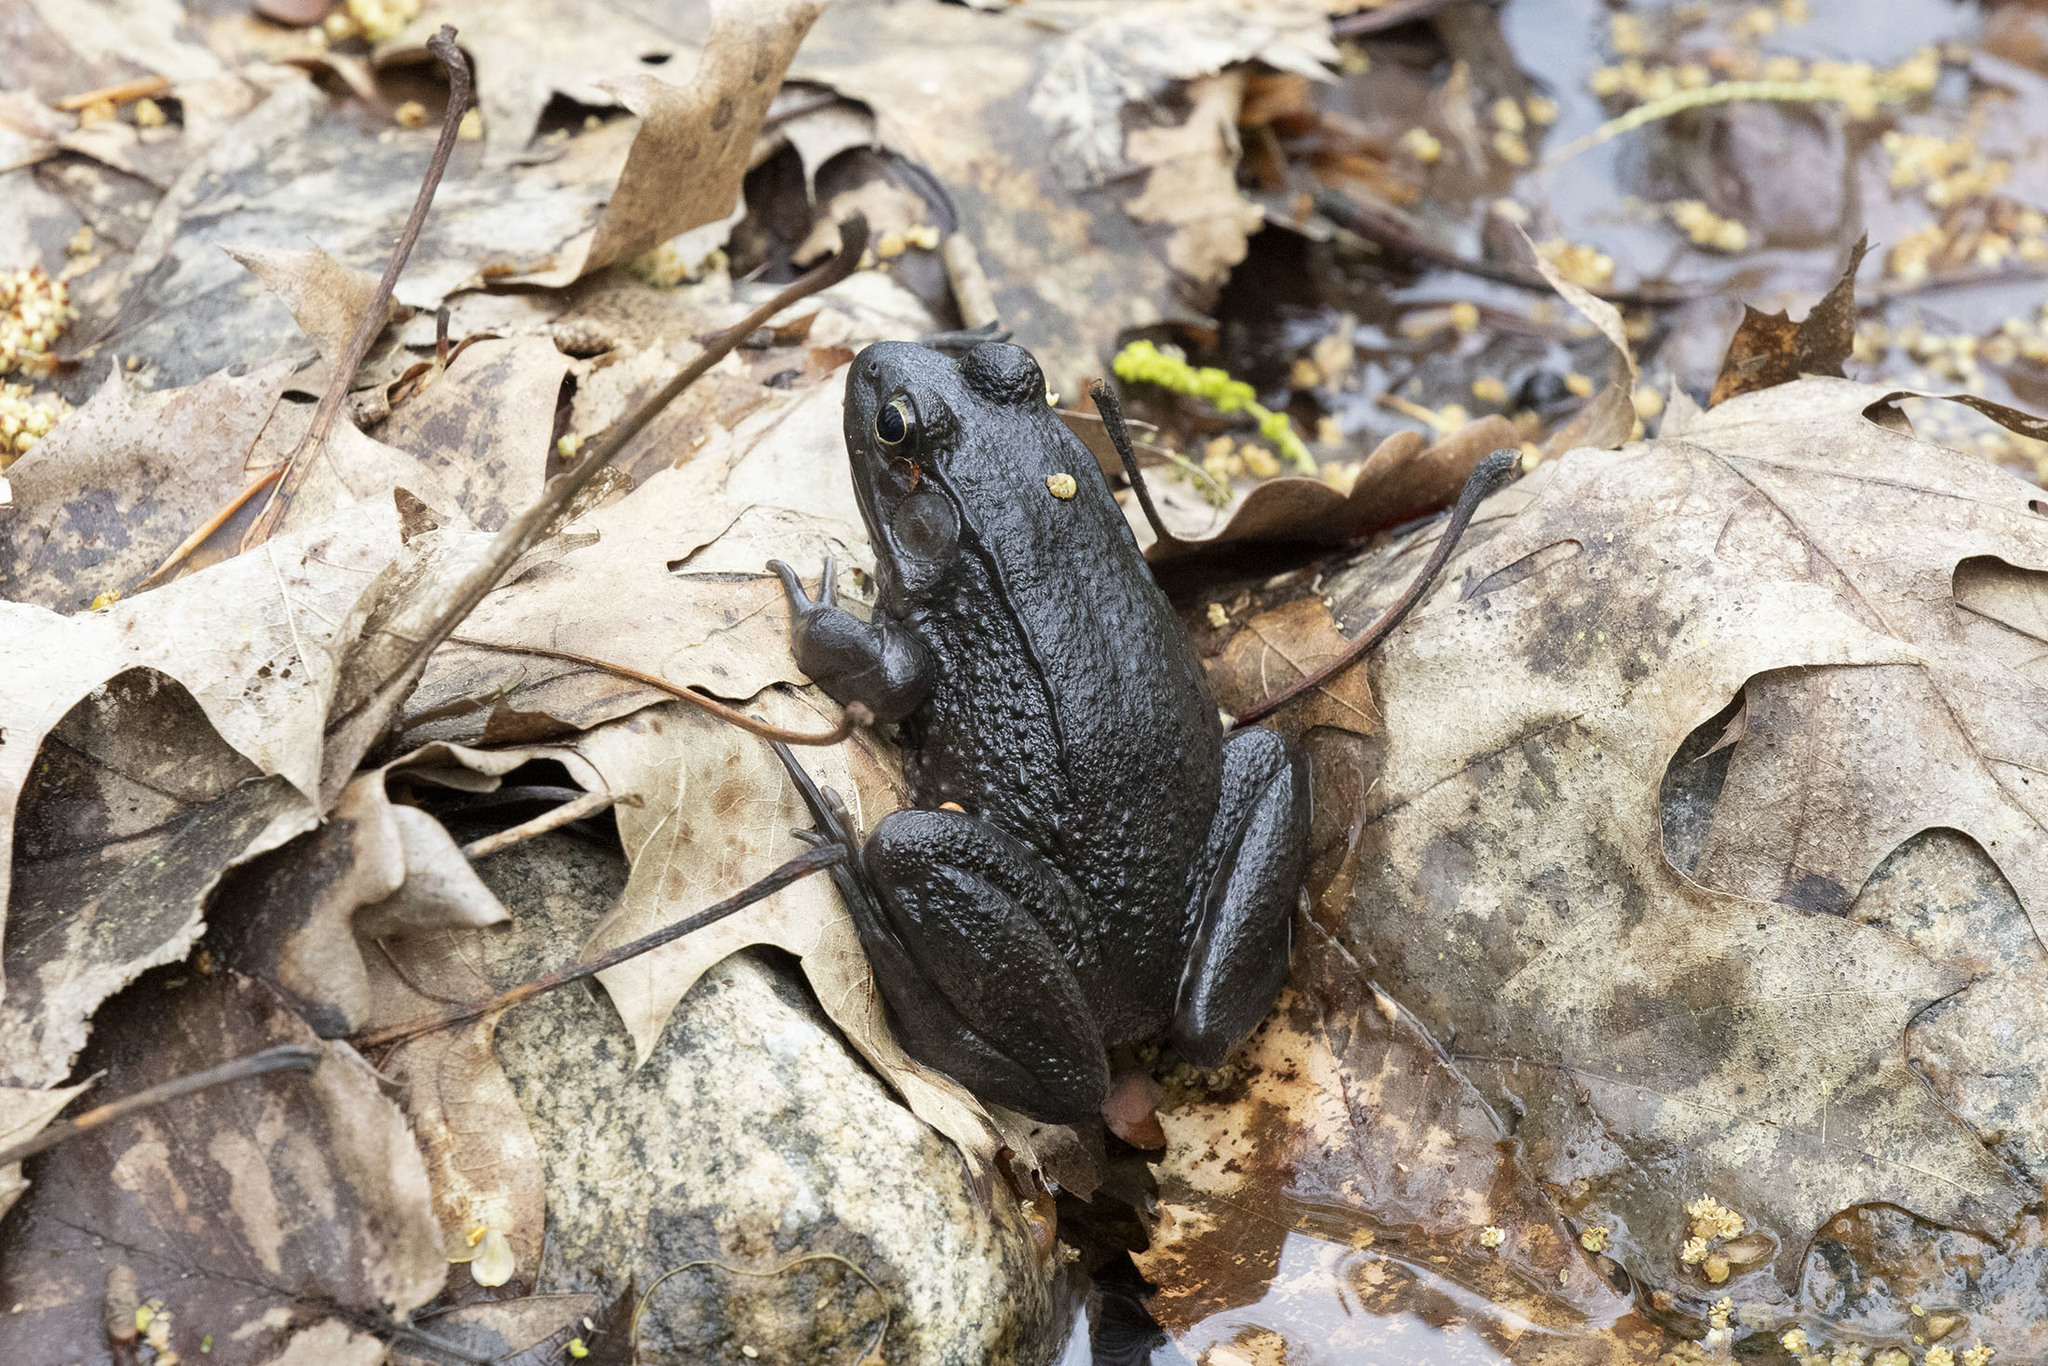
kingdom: Animalia
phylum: Chordata
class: Amphibia
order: Anura
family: Ranidae
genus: Lithobates
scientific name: Lithobates clamitans
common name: Green frog
